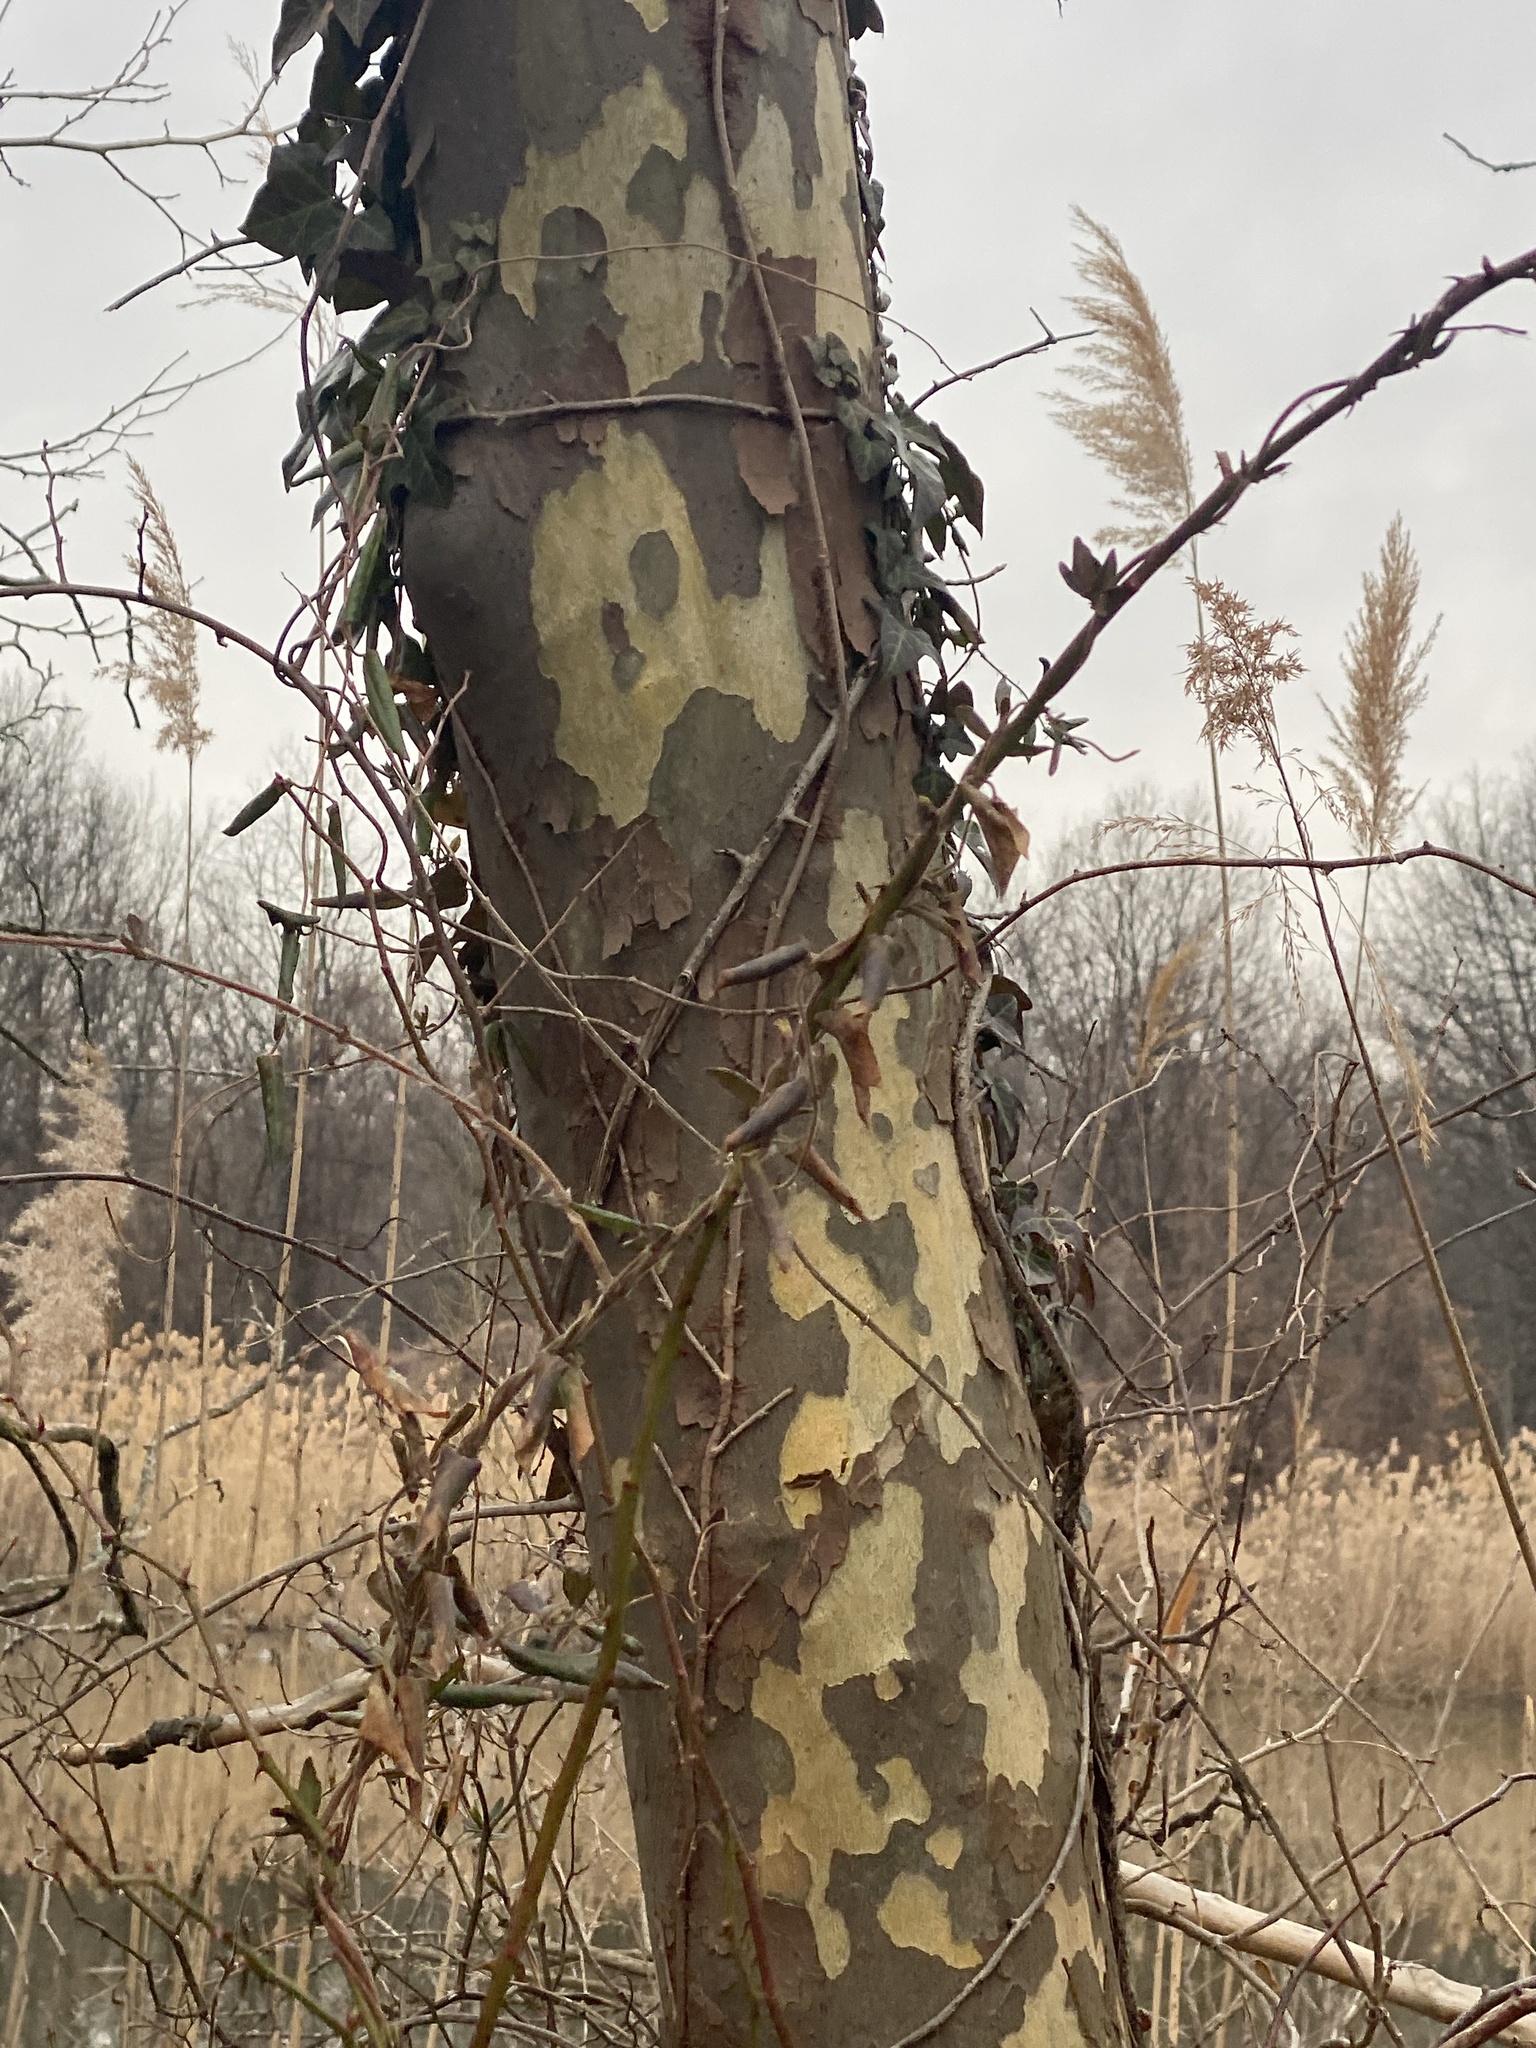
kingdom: Plantae
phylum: Tracheophyta
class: Magnoliopsida
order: Proteales
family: Platanaceae
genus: Platanus
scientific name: Platanus
